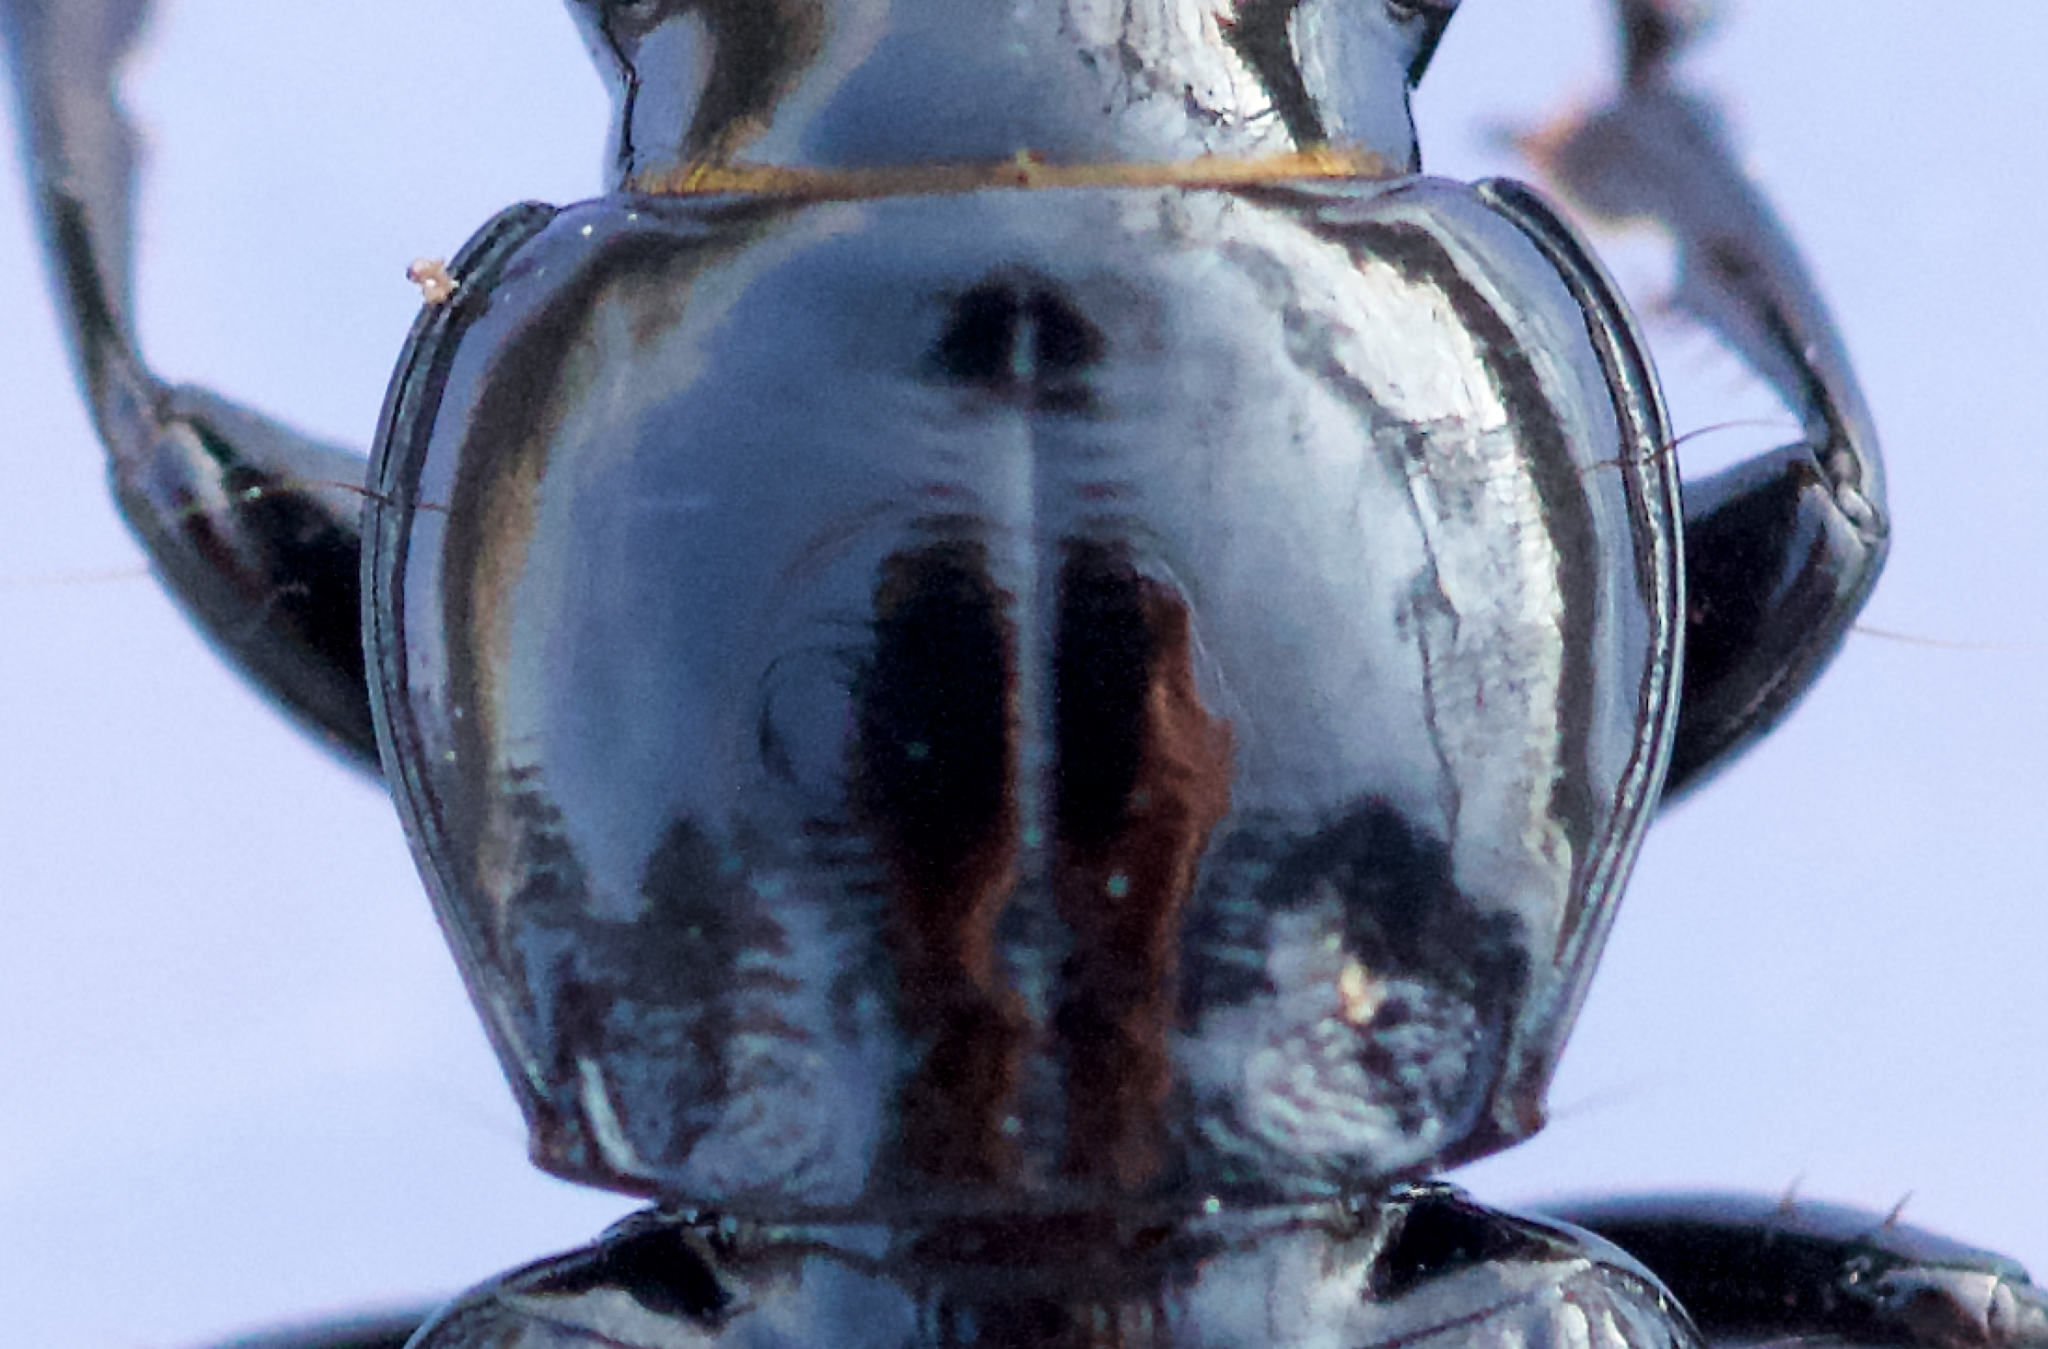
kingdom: Animalia
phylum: Arthropoda
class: Insecta
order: Coleoptera
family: Carabidae
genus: Pterostichus
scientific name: Pterostichus corvinus
